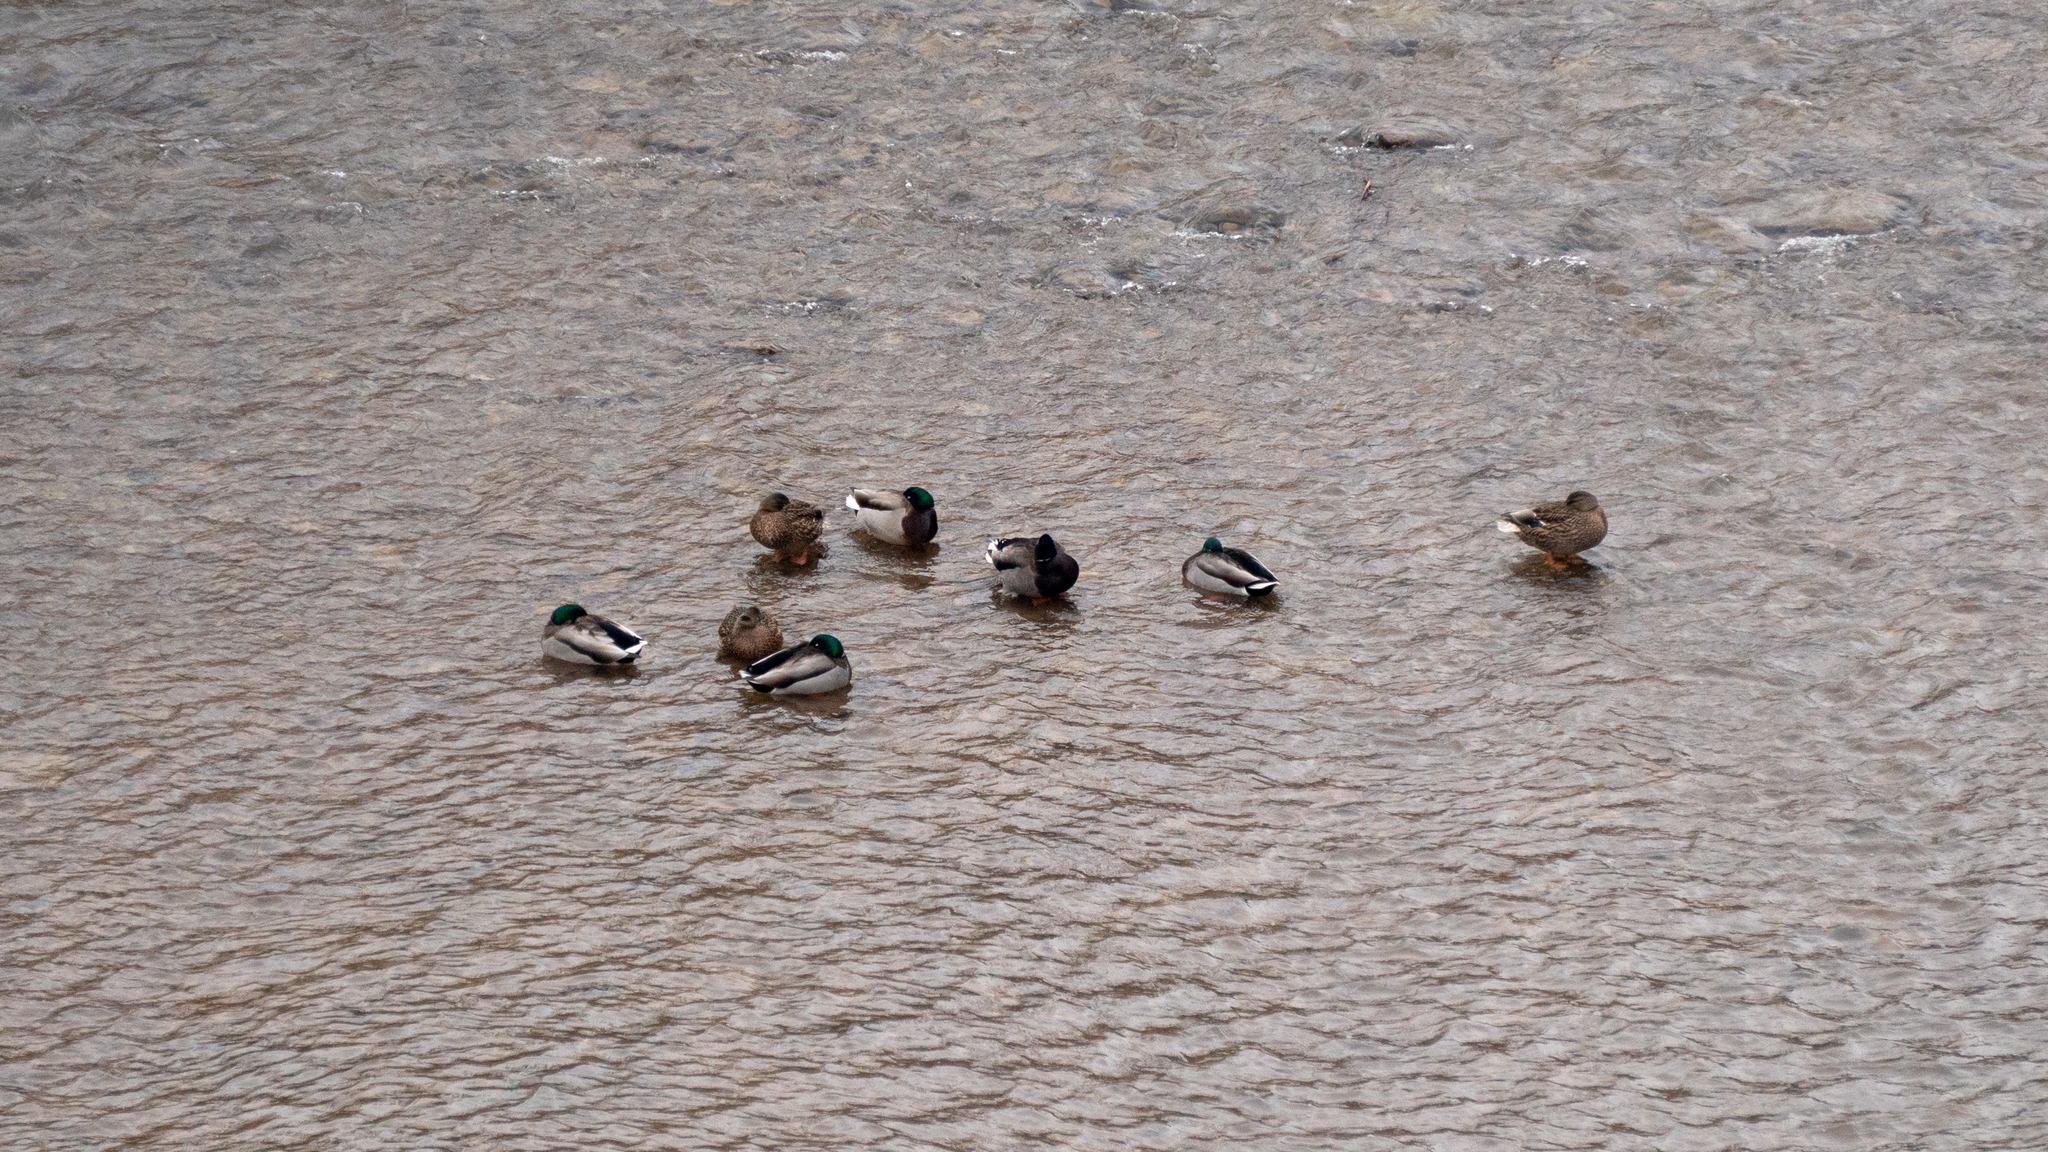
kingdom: Animalia
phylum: Chordata
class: Aves
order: Anseriformes
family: Anatidae
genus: Anas
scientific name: Anas platyrhynchos
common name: Mallard
